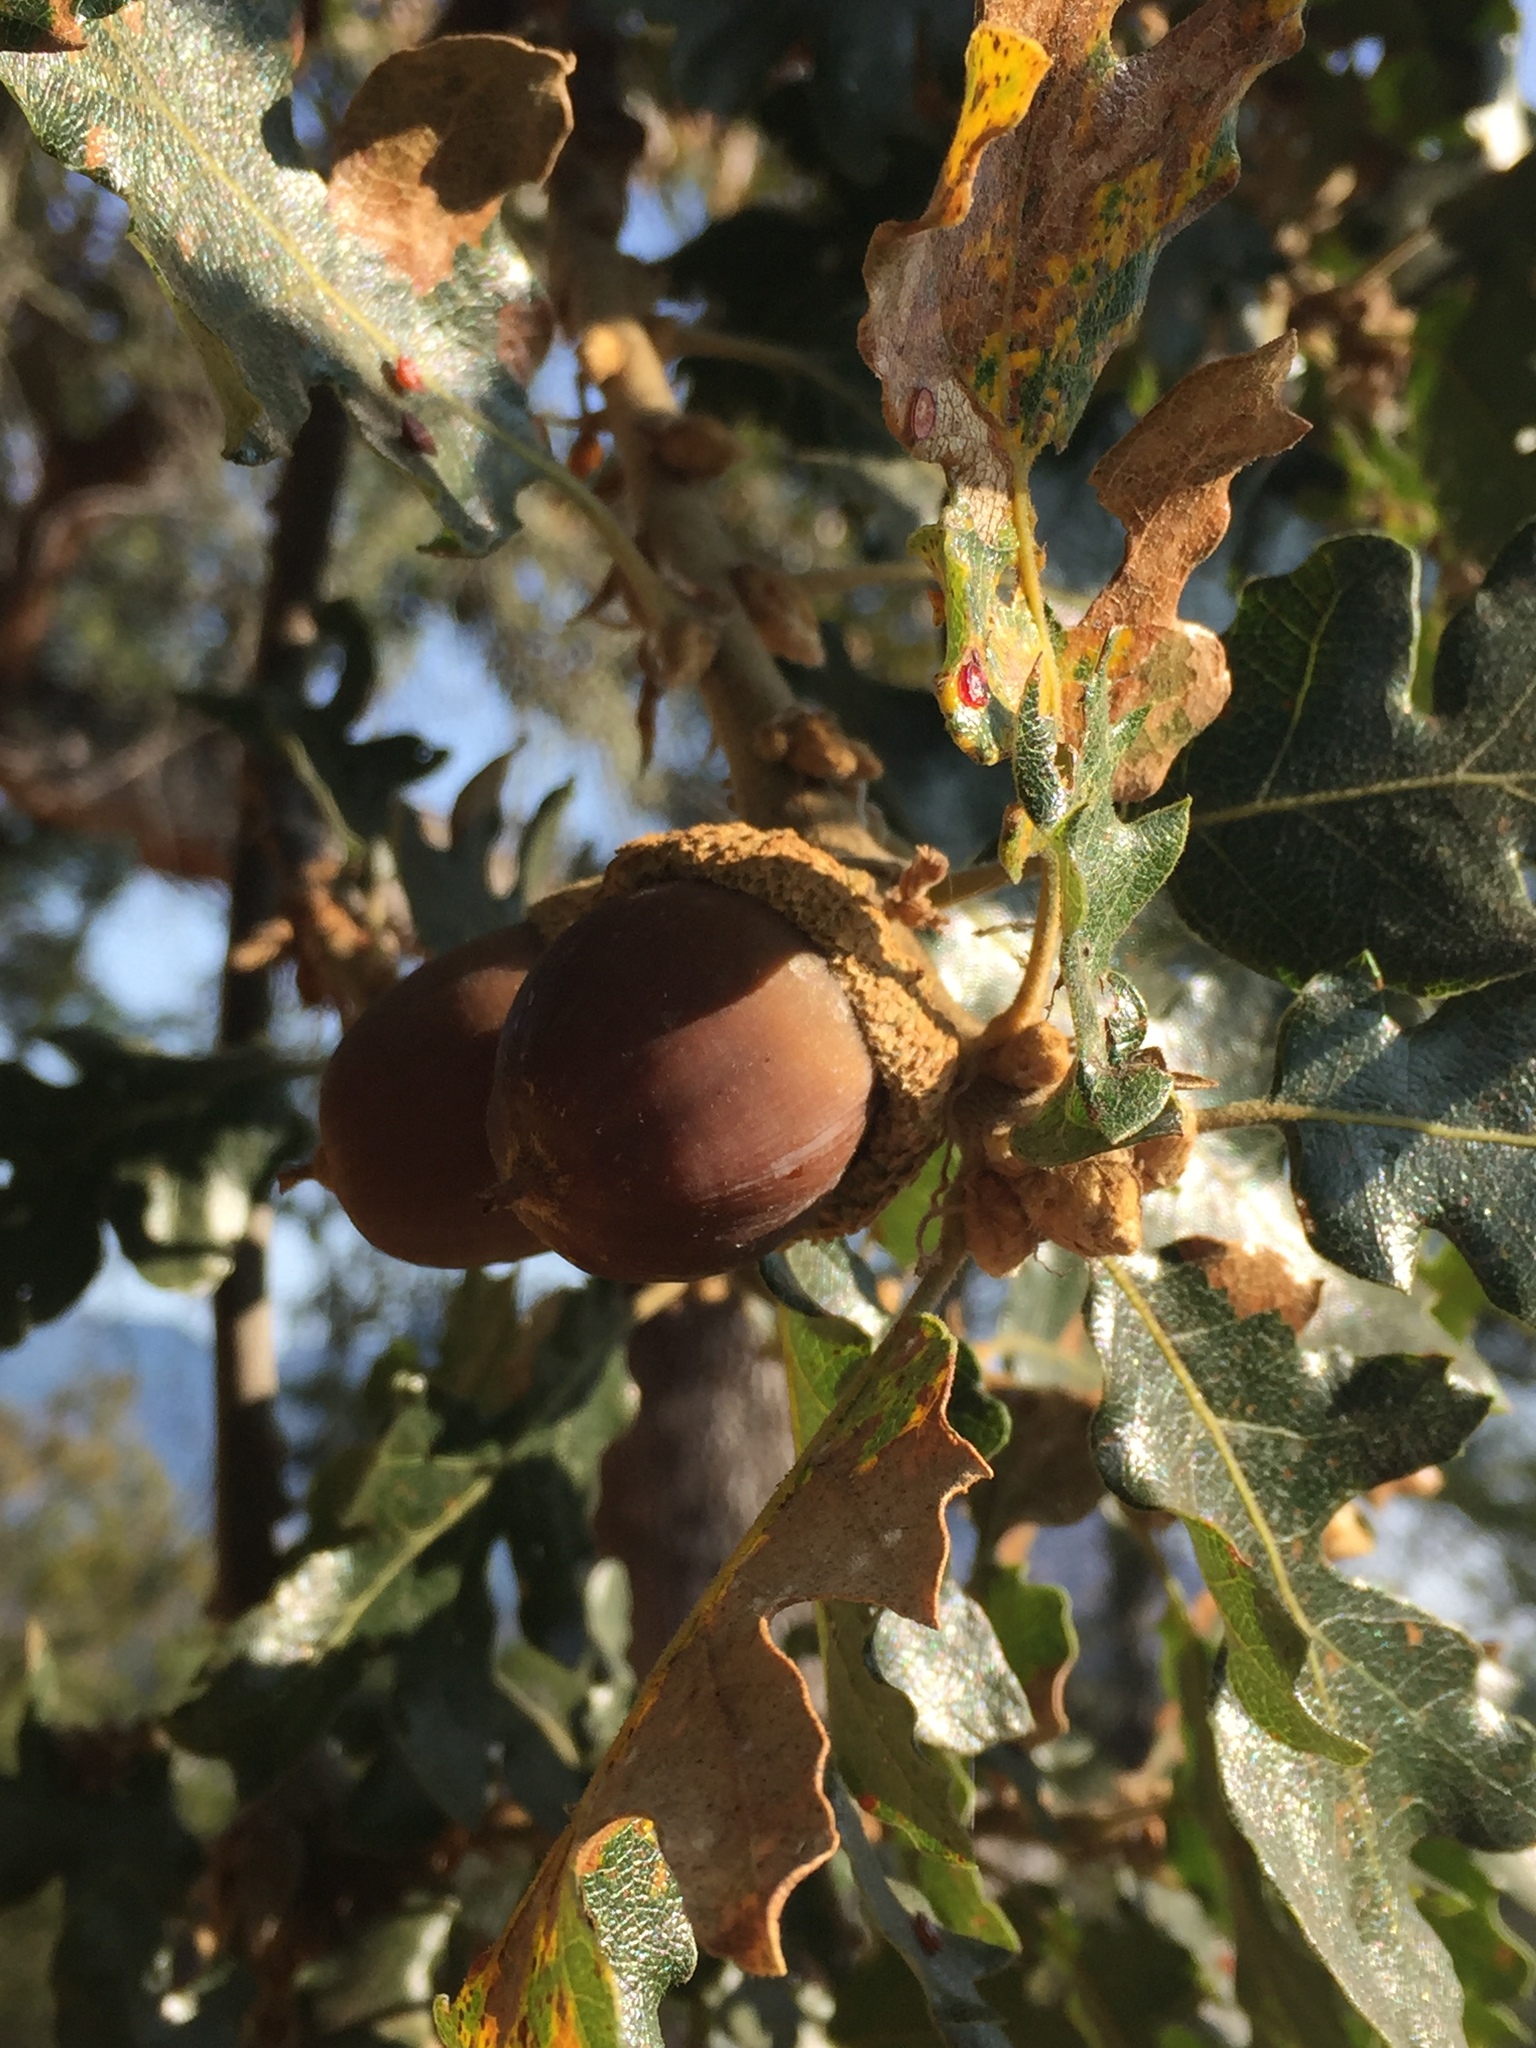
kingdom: Plantae
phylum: Tracheophyta
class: Magnoliopsida
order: Fagales
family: Fagaceae
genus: Quercus
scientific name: Quercus garryana
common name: Garry oak
